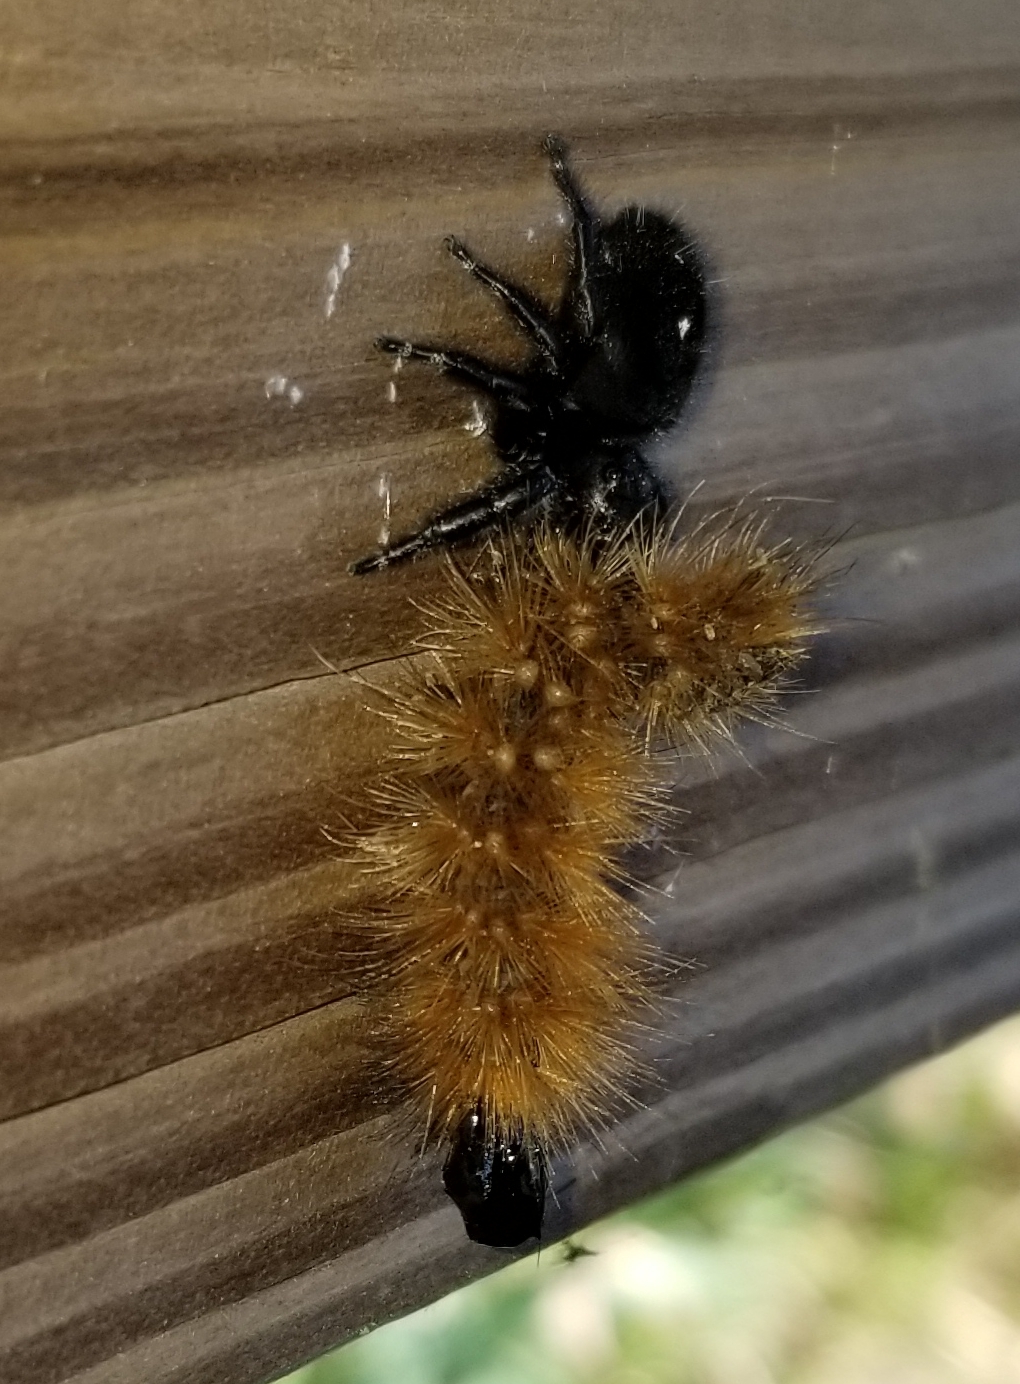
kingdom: Animalia
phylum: Arthropoda
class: Arachnida
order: Araneae
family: Salticidae
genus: Phidippus
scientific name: Phidippus audax
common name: Bold jumper
